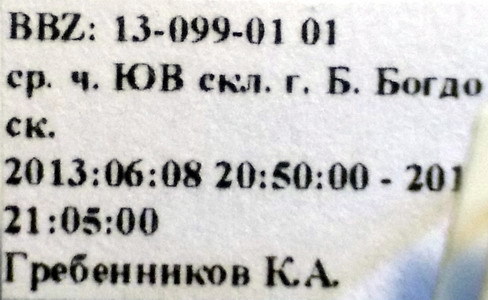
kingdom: Animalia
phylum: Arthropoda
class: Insecta
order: Hemiptera
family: Pentatomidae
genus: Aelia
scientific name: Aelia furcula
